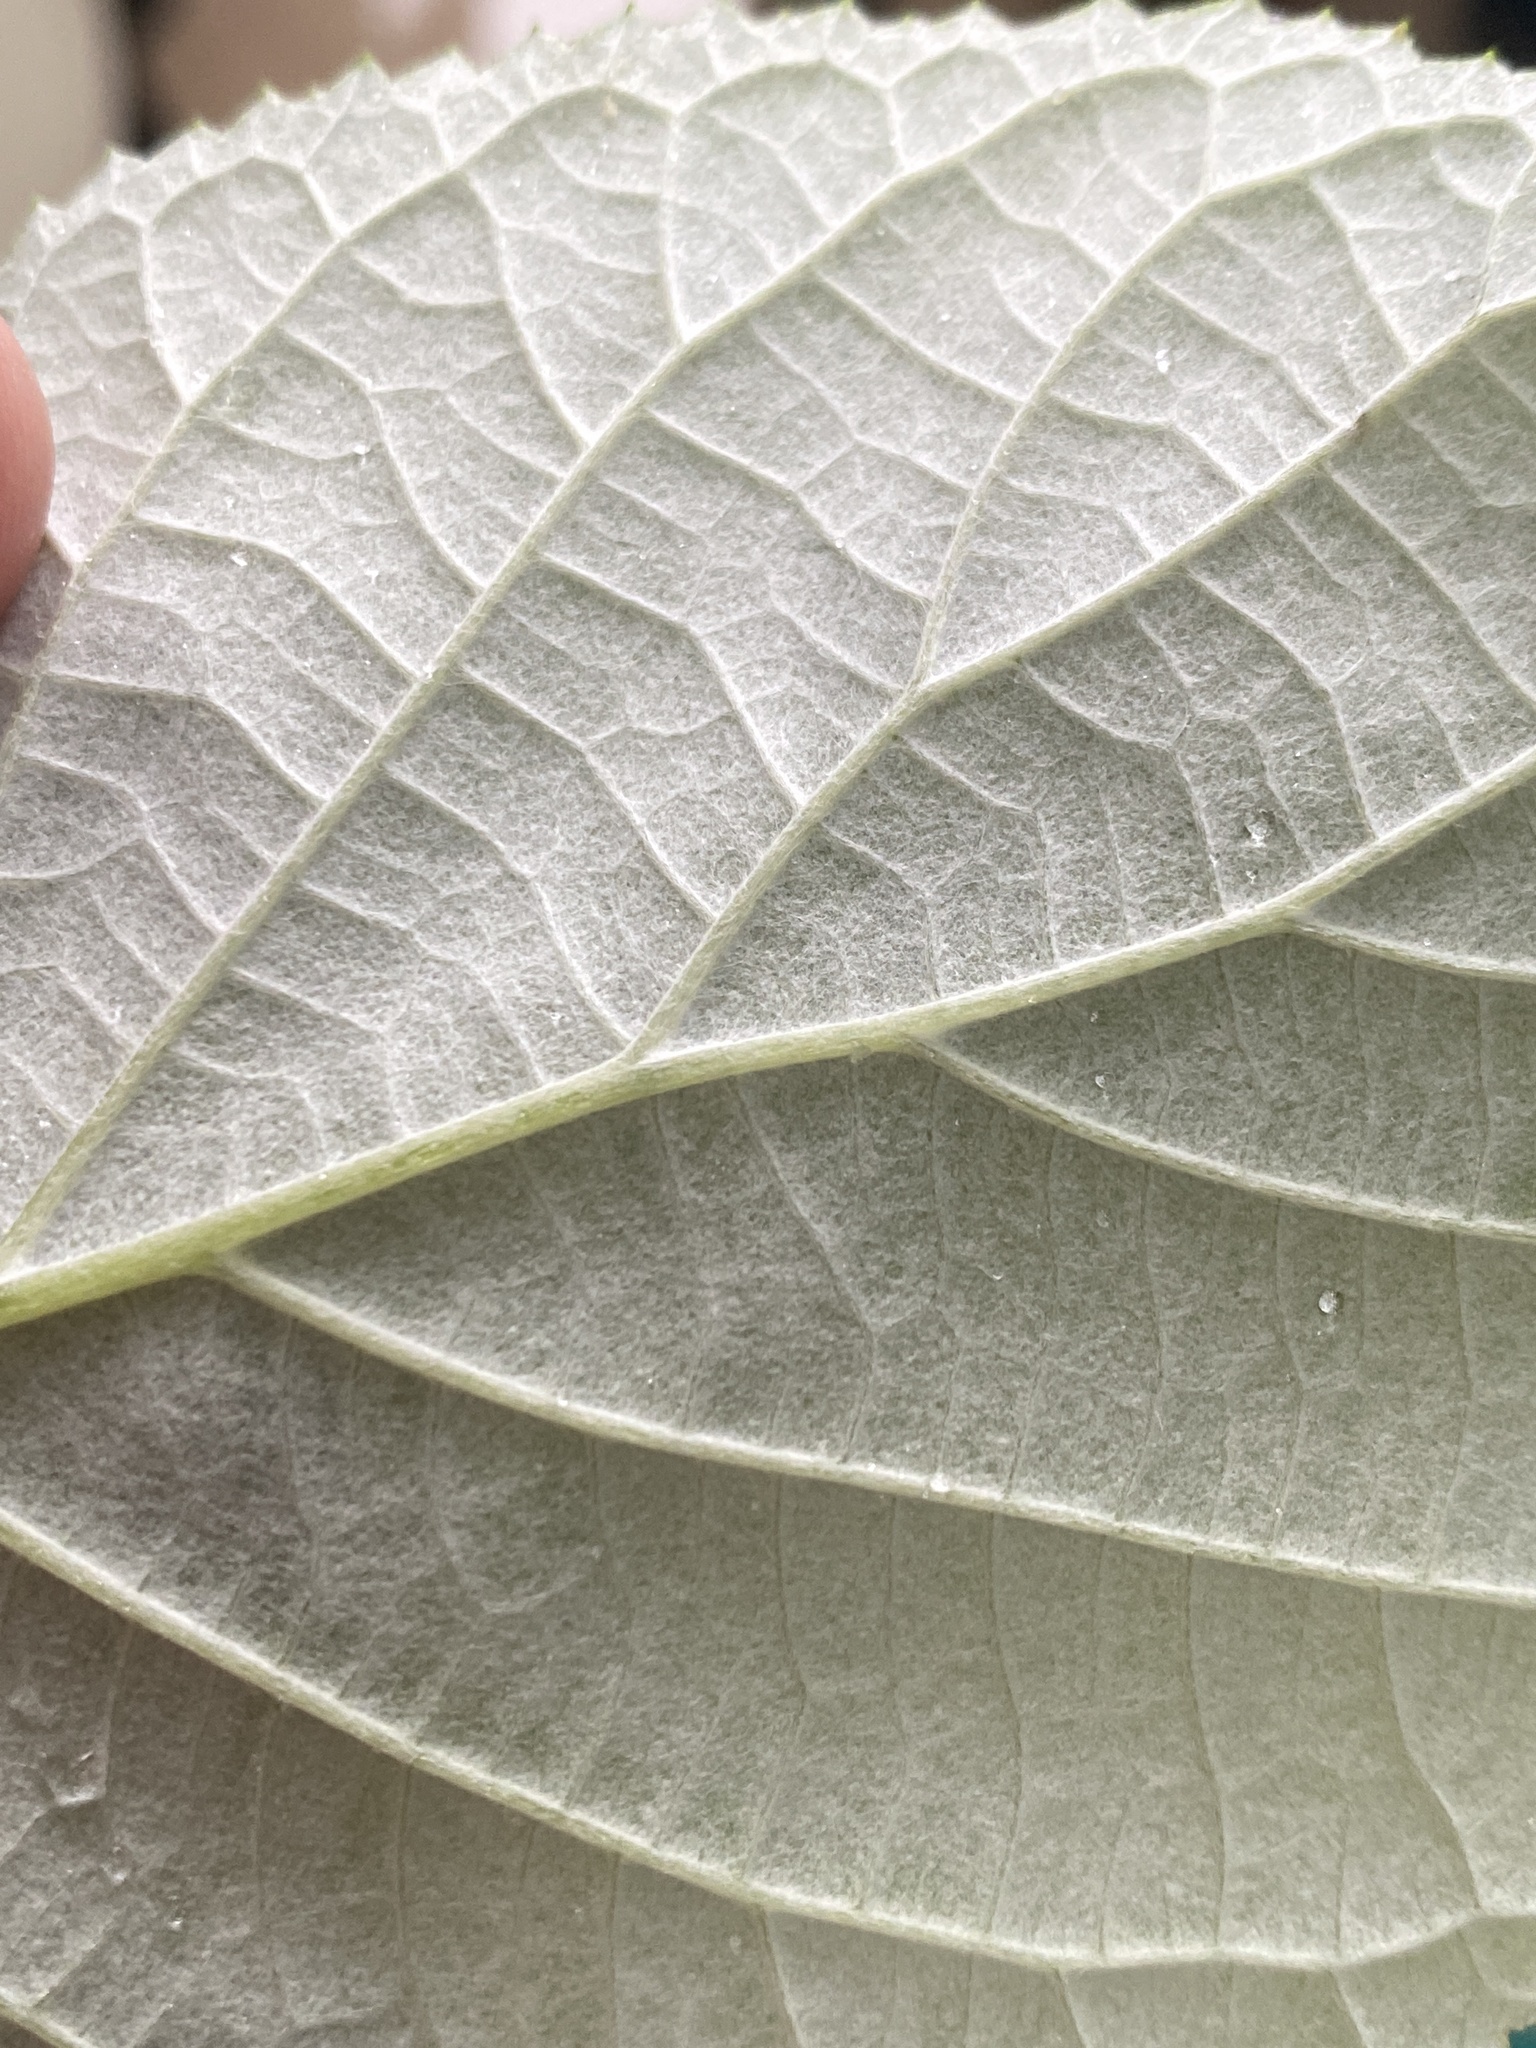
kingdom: Plantae
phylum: Tracheophyta
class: Magnoliopsida
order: Cornales
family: Hydrangeaceae
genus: Hydrangea
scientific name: Hydrangea radiata
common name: Silverleaf hydrangea
